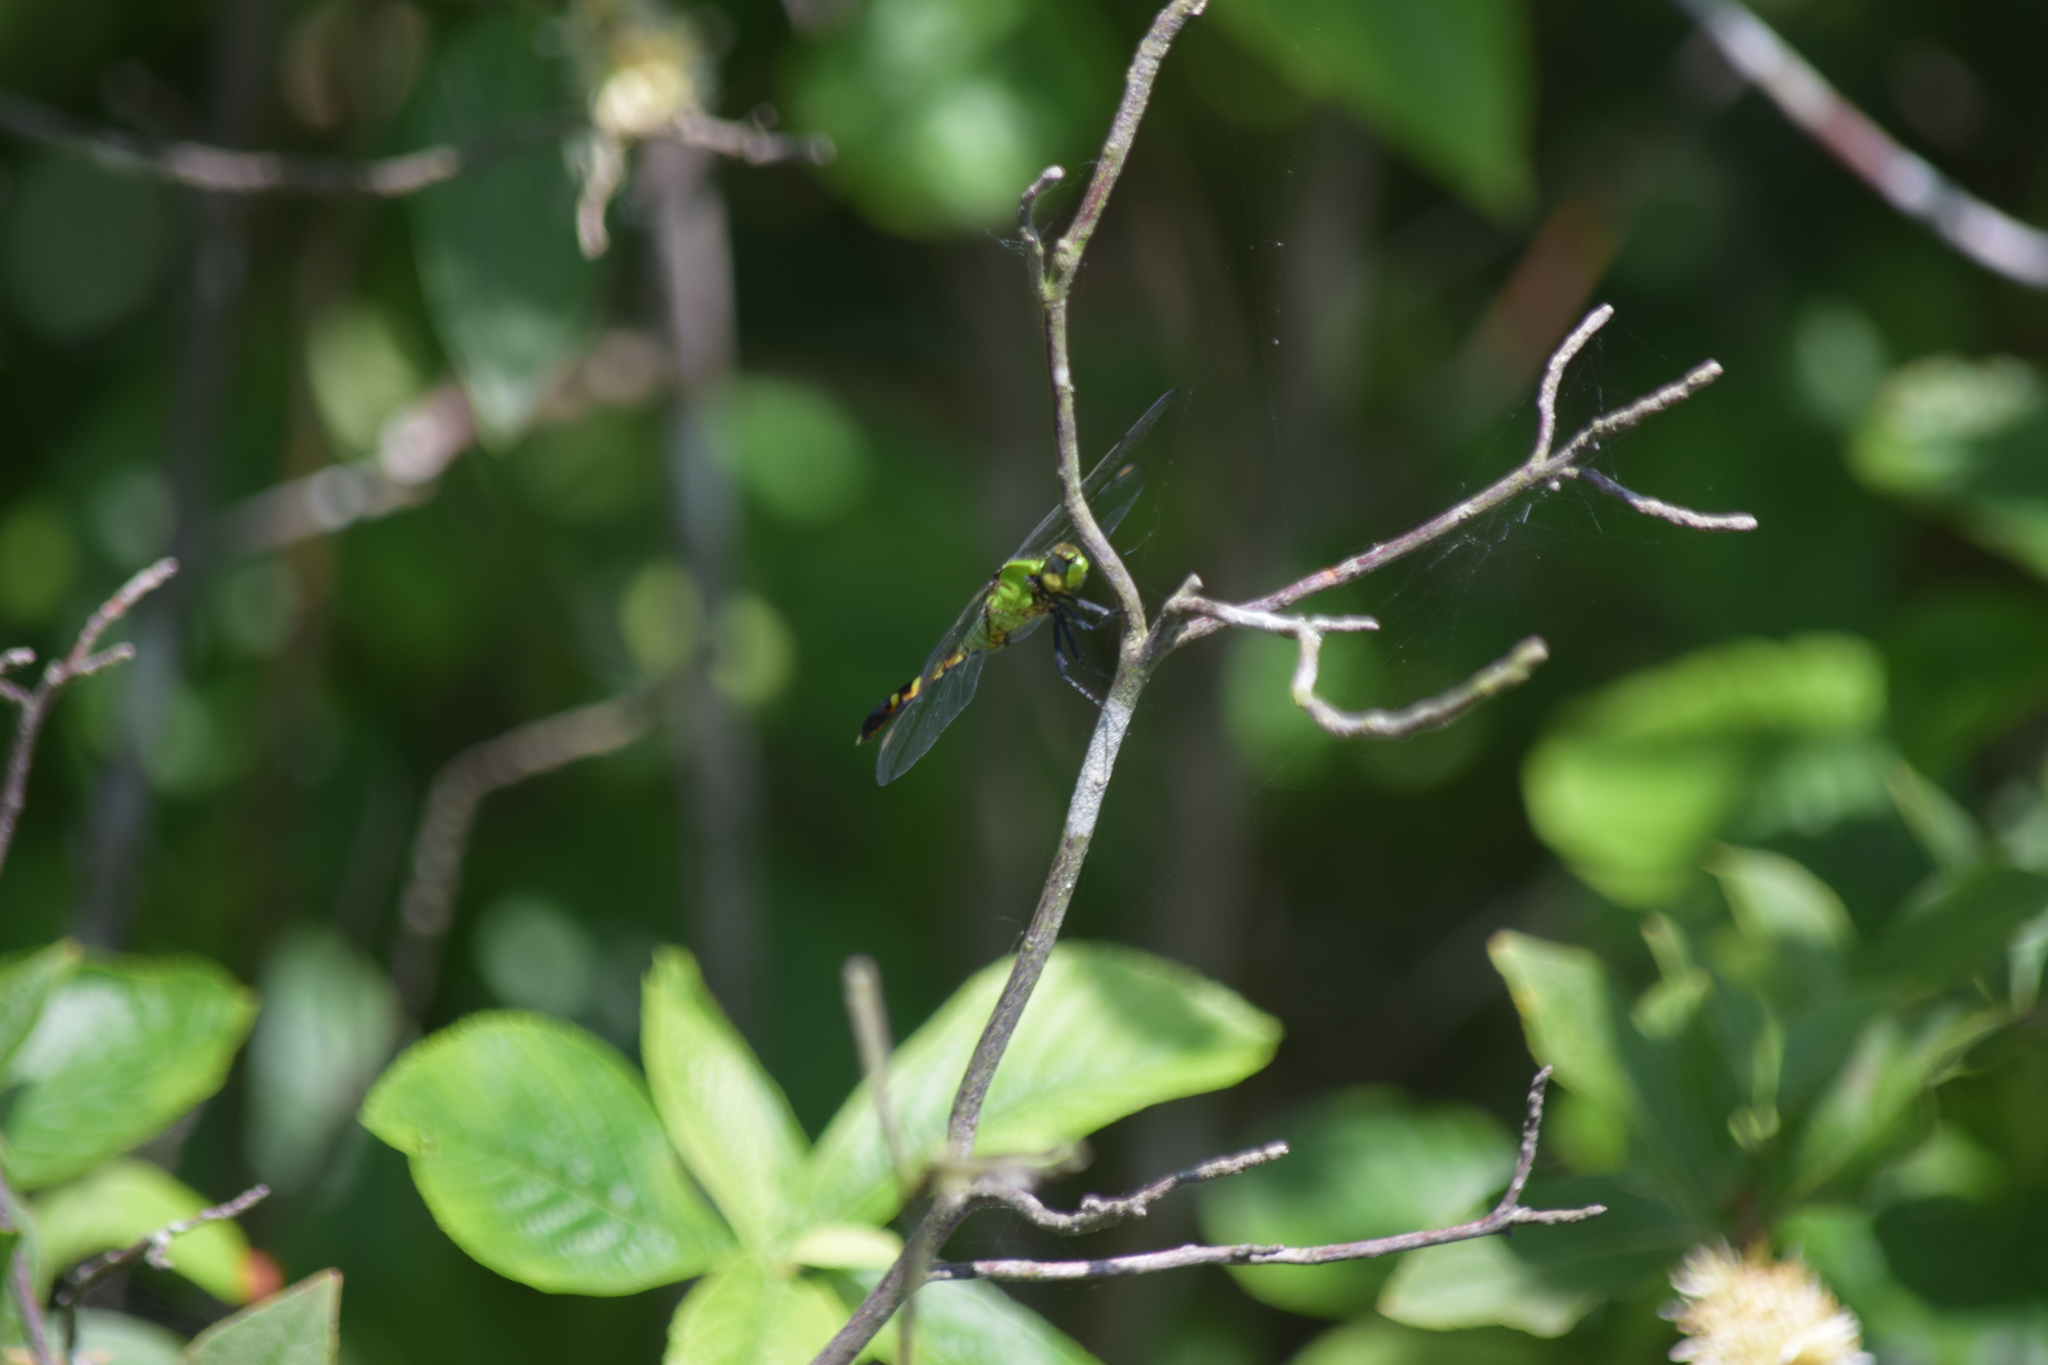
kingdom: Animalia
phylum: Arthropoda
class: Insecta
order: Odonata
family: Libellulidae
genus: Erythemis
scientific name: Erythemis simplicicollis
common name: Eastern pondhawk
